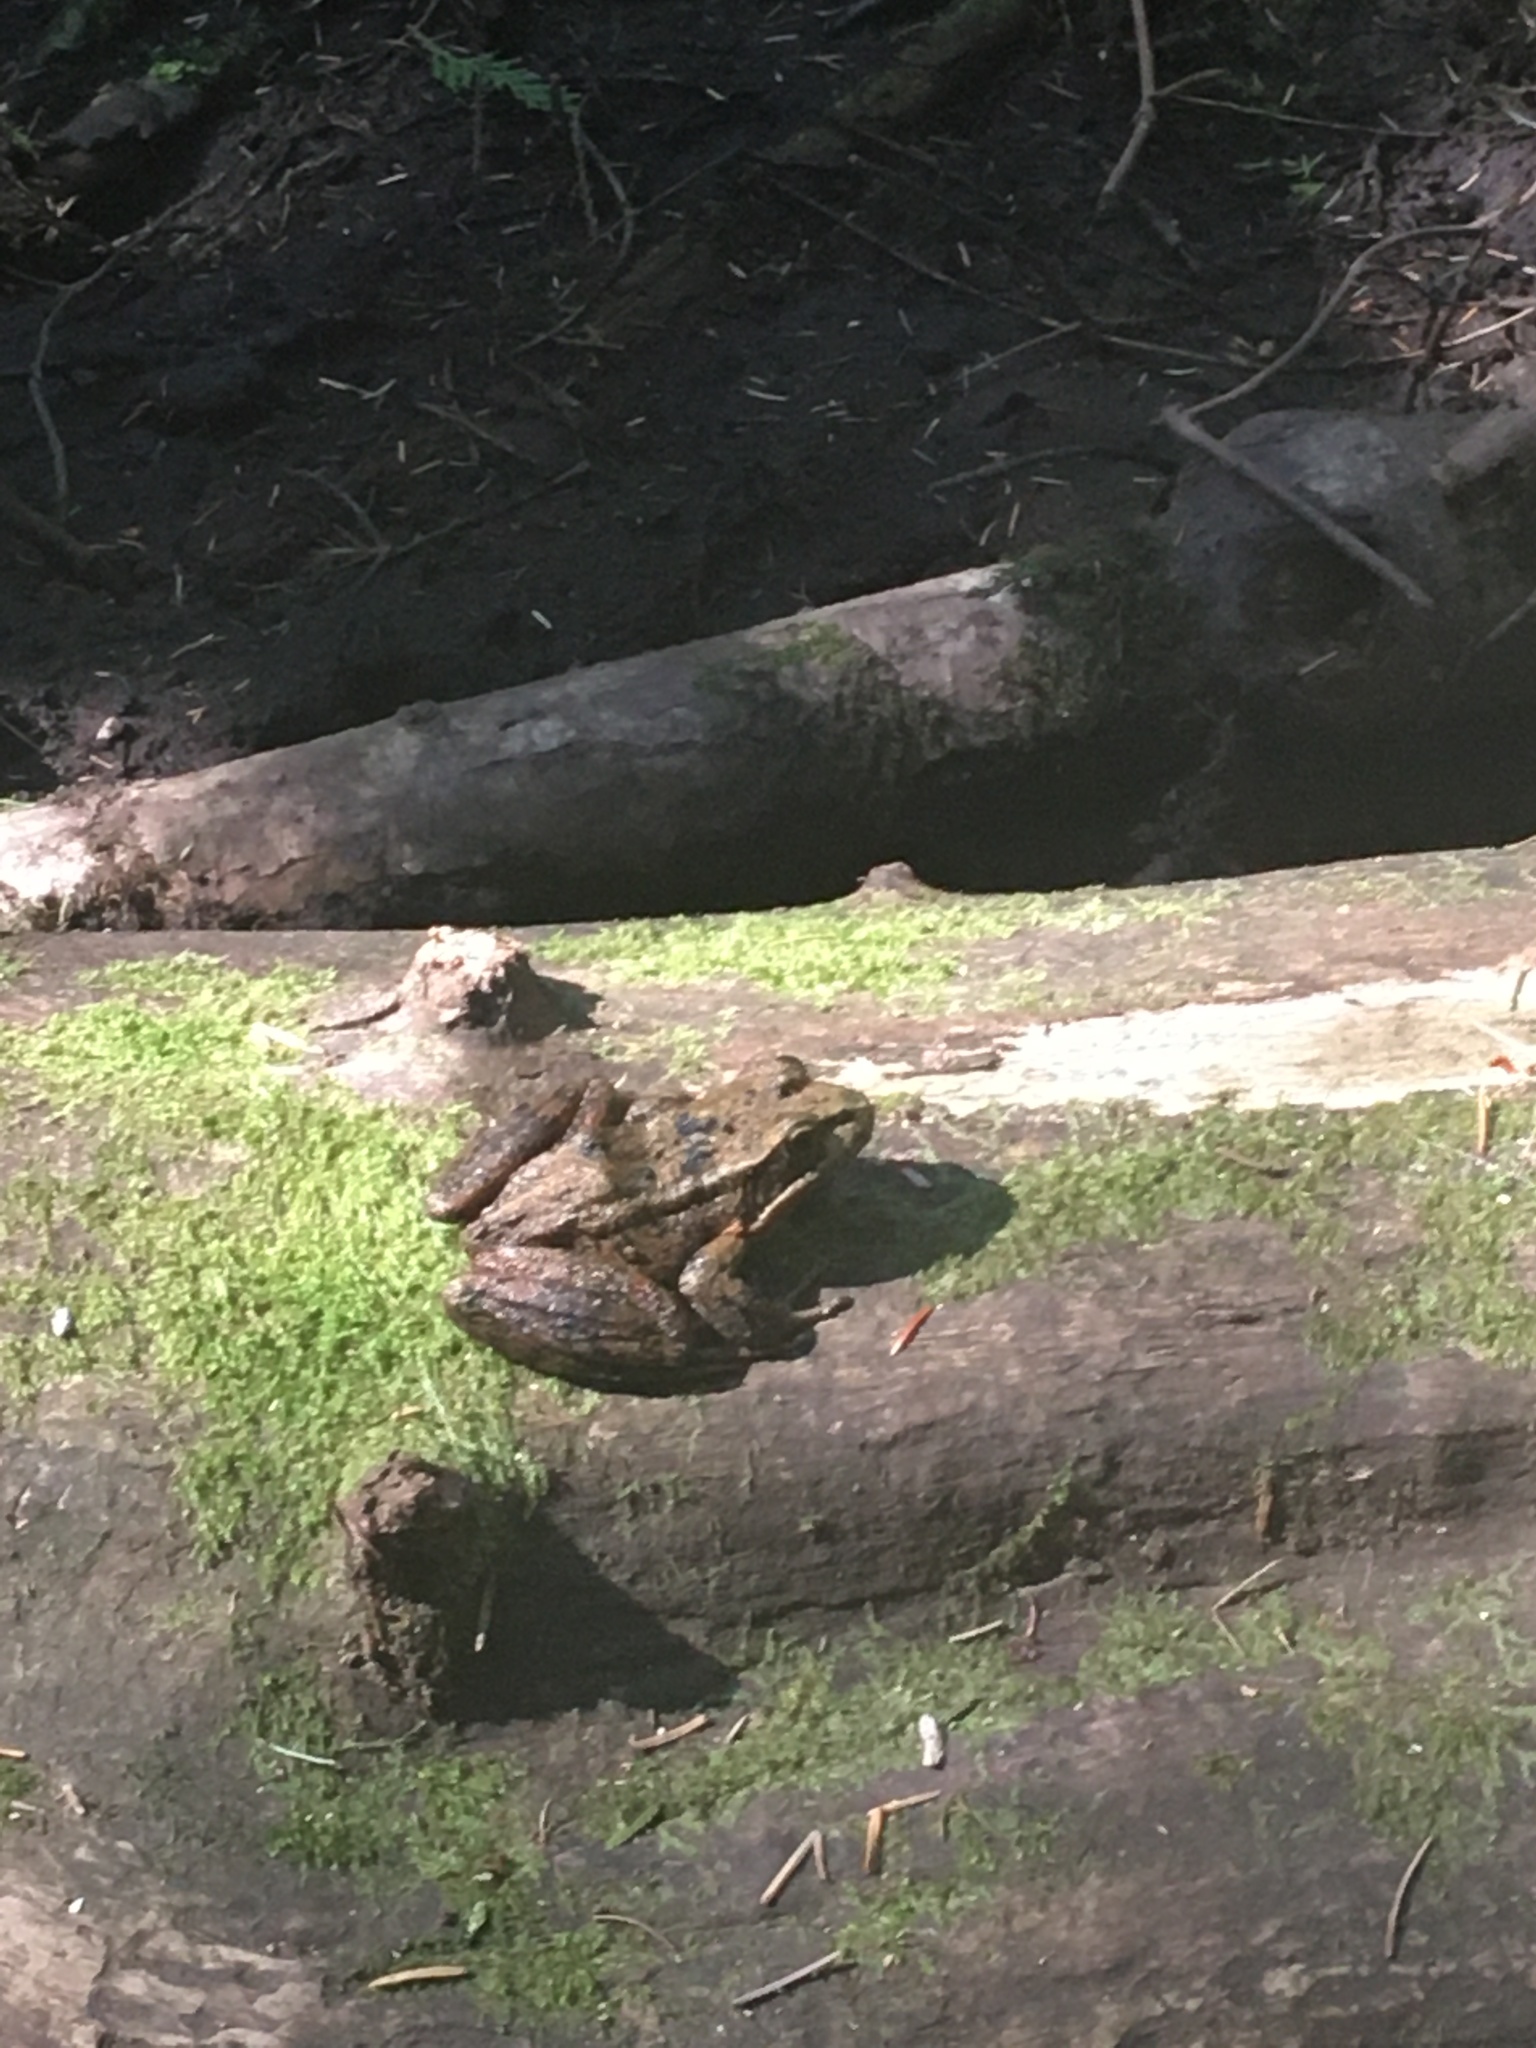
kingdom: Animalia
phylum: Chordata
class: Amphibia
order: Anura
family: Ranidae
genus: Rana
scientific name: Rana aurora
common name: Red-legged frog
